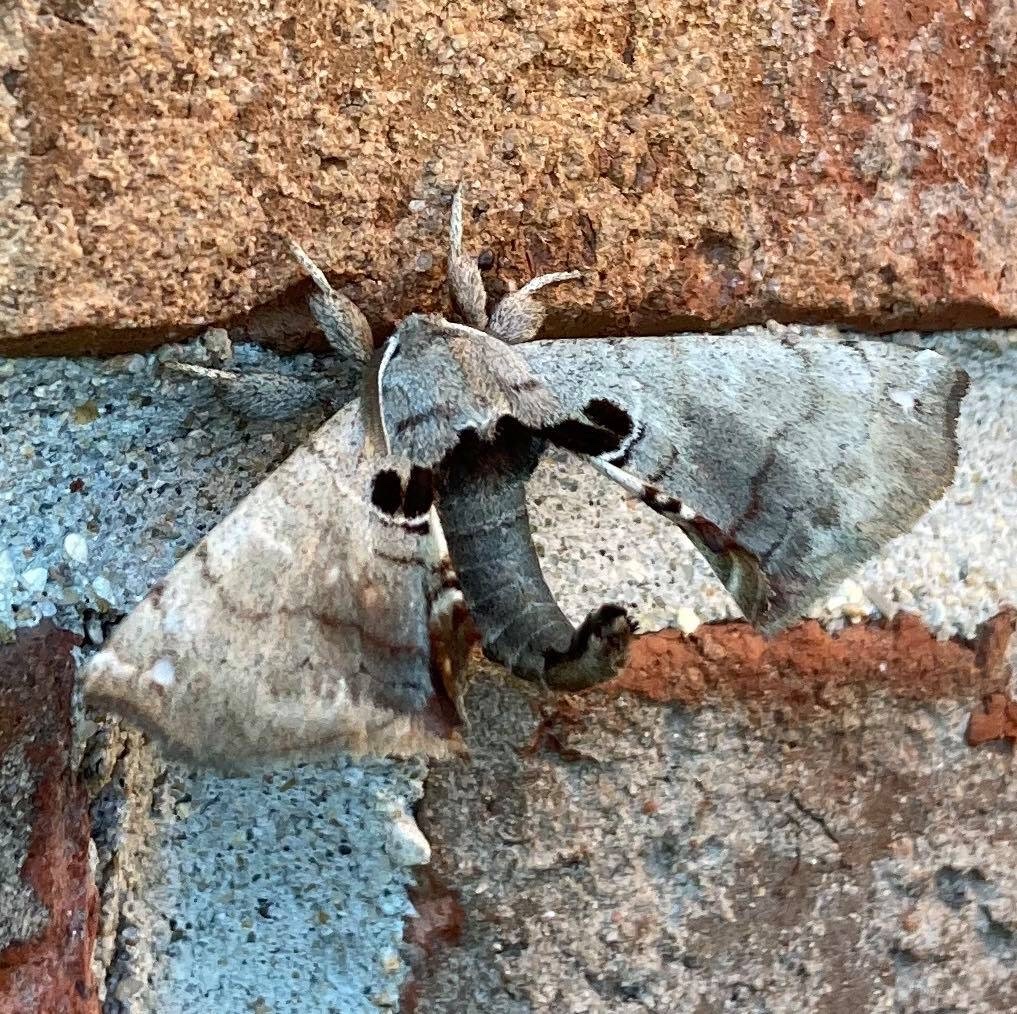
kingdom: Animalia
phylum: Arthropoda
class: Insecta
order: Lepidoptera
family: Apatelodidae
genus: Hygrochroa
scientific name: Hygrochroa Apatelodes torrefacta
